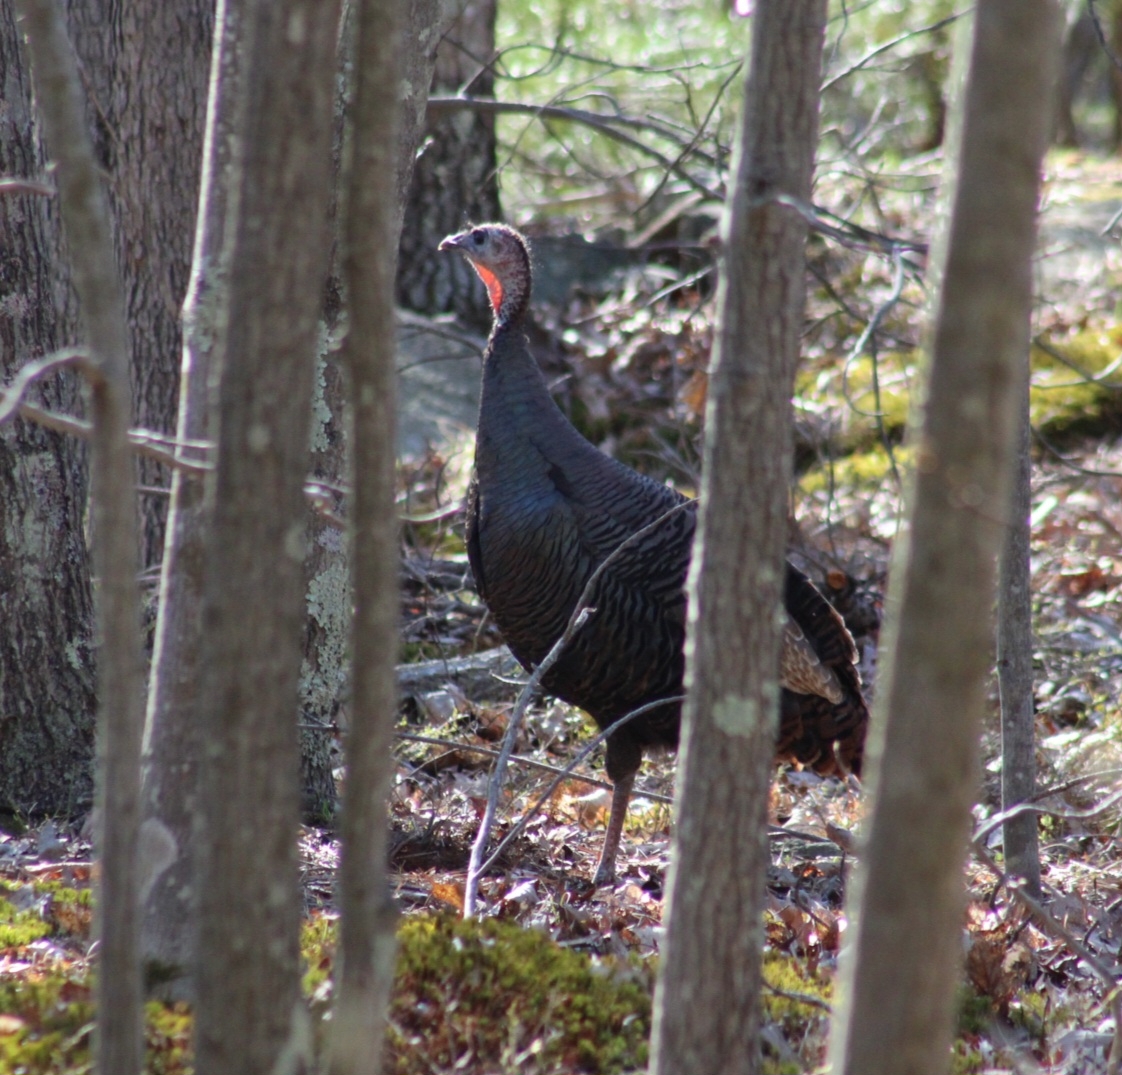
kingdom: Animalia
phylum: Chordata
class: Aves
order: Galliformes
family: Phasianidae
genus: Meleagris
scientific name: Meleagris gallopavo
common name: Wild turkey
